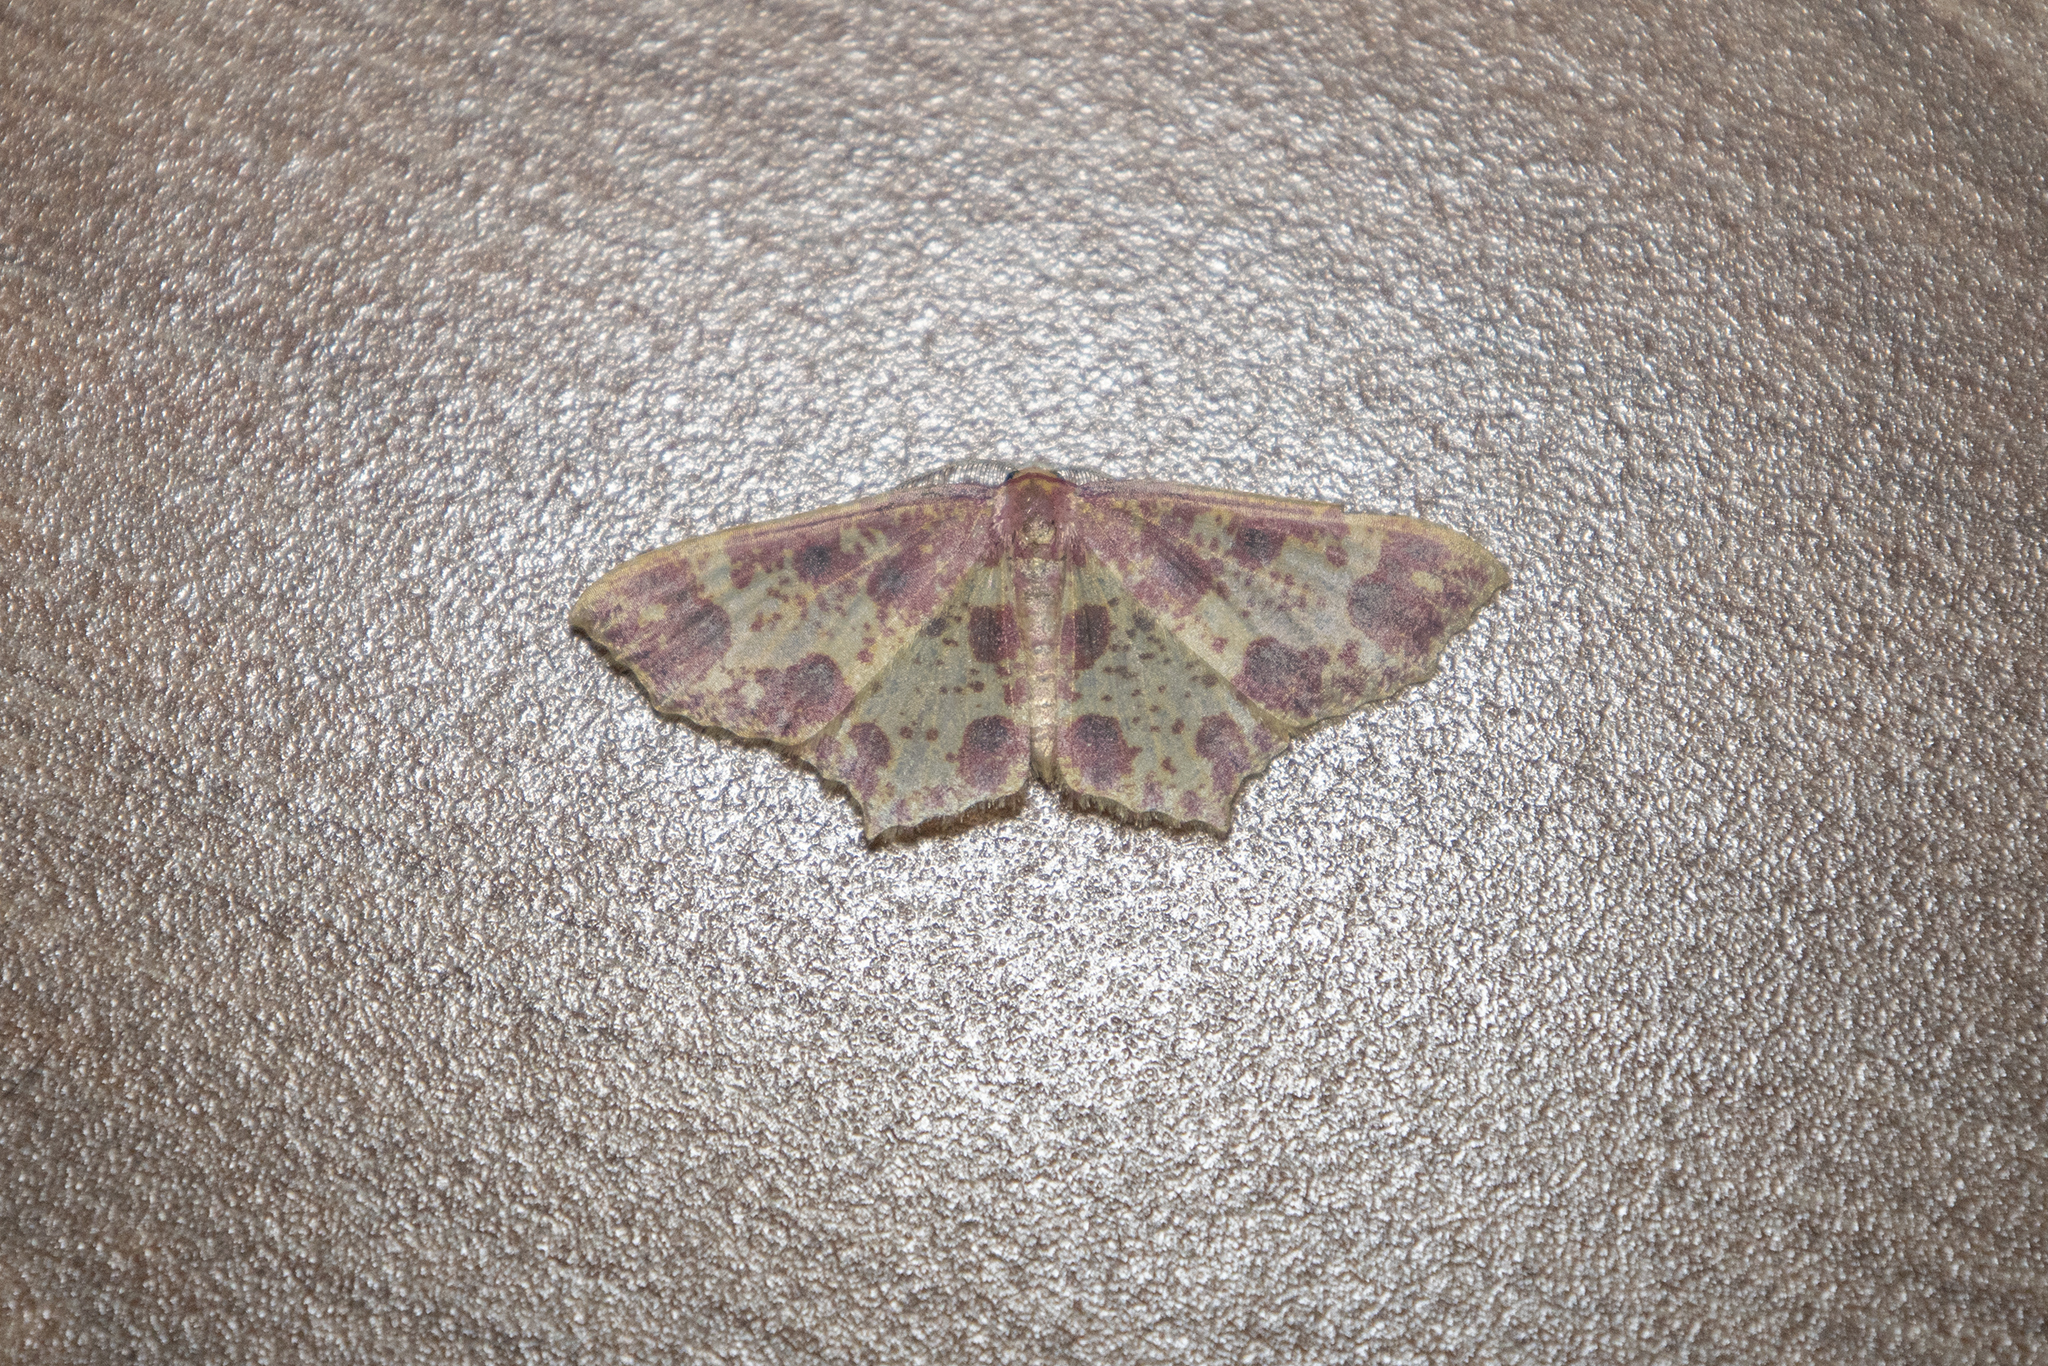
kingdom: Animalia
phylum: Arthropoda
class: Insecta
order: Lepidoptera
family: Geometridae
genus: Synegiodes
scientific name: Synegiodes sanguinaria
